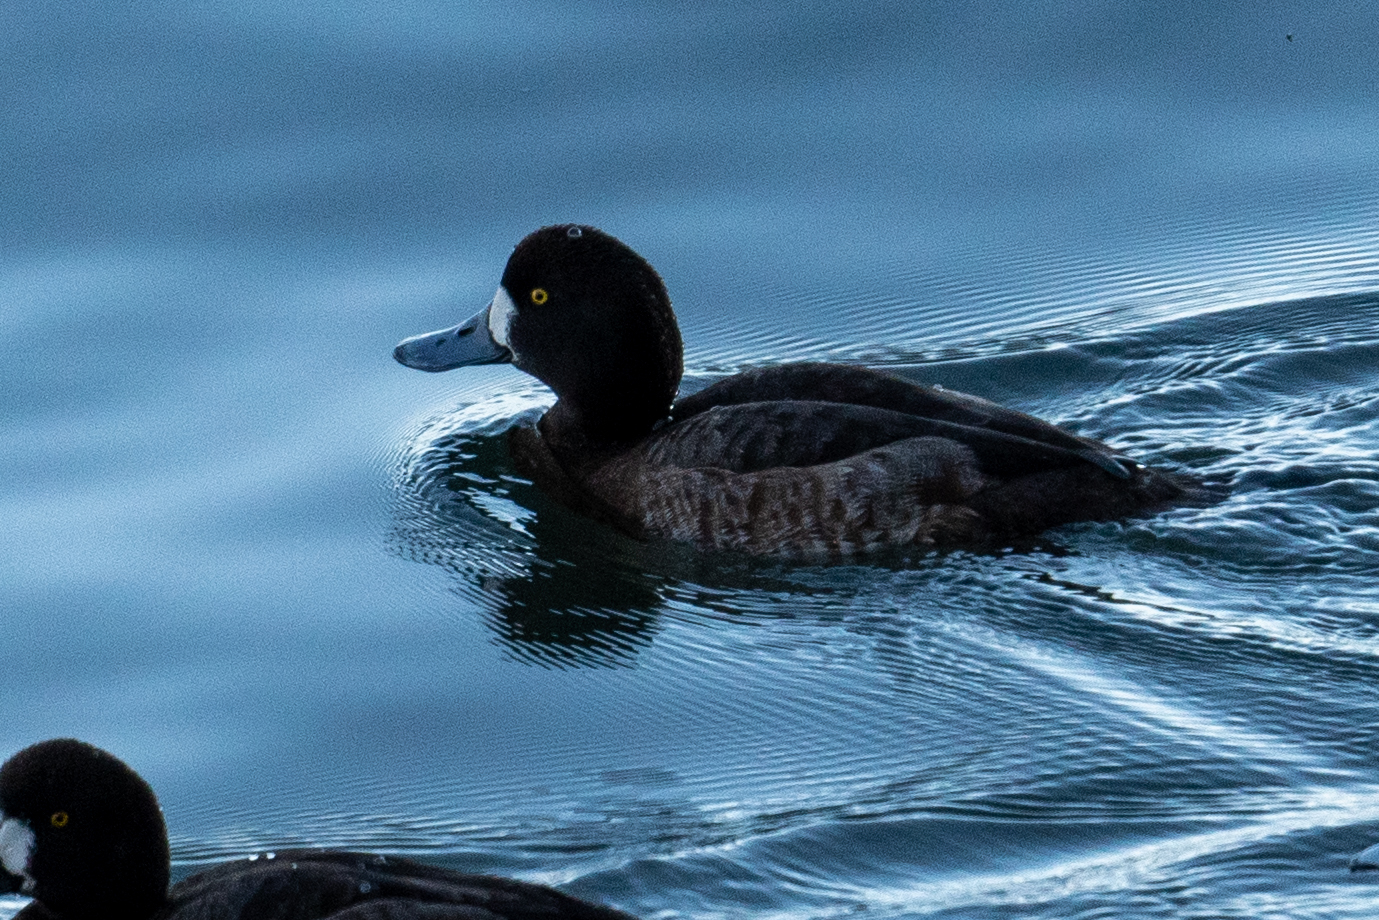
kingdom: Animalia
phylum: Chordata
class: Aves
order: Anseriformes
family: Anatidae
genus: Aythya
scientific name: Aythya marila
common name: Greater scaup
